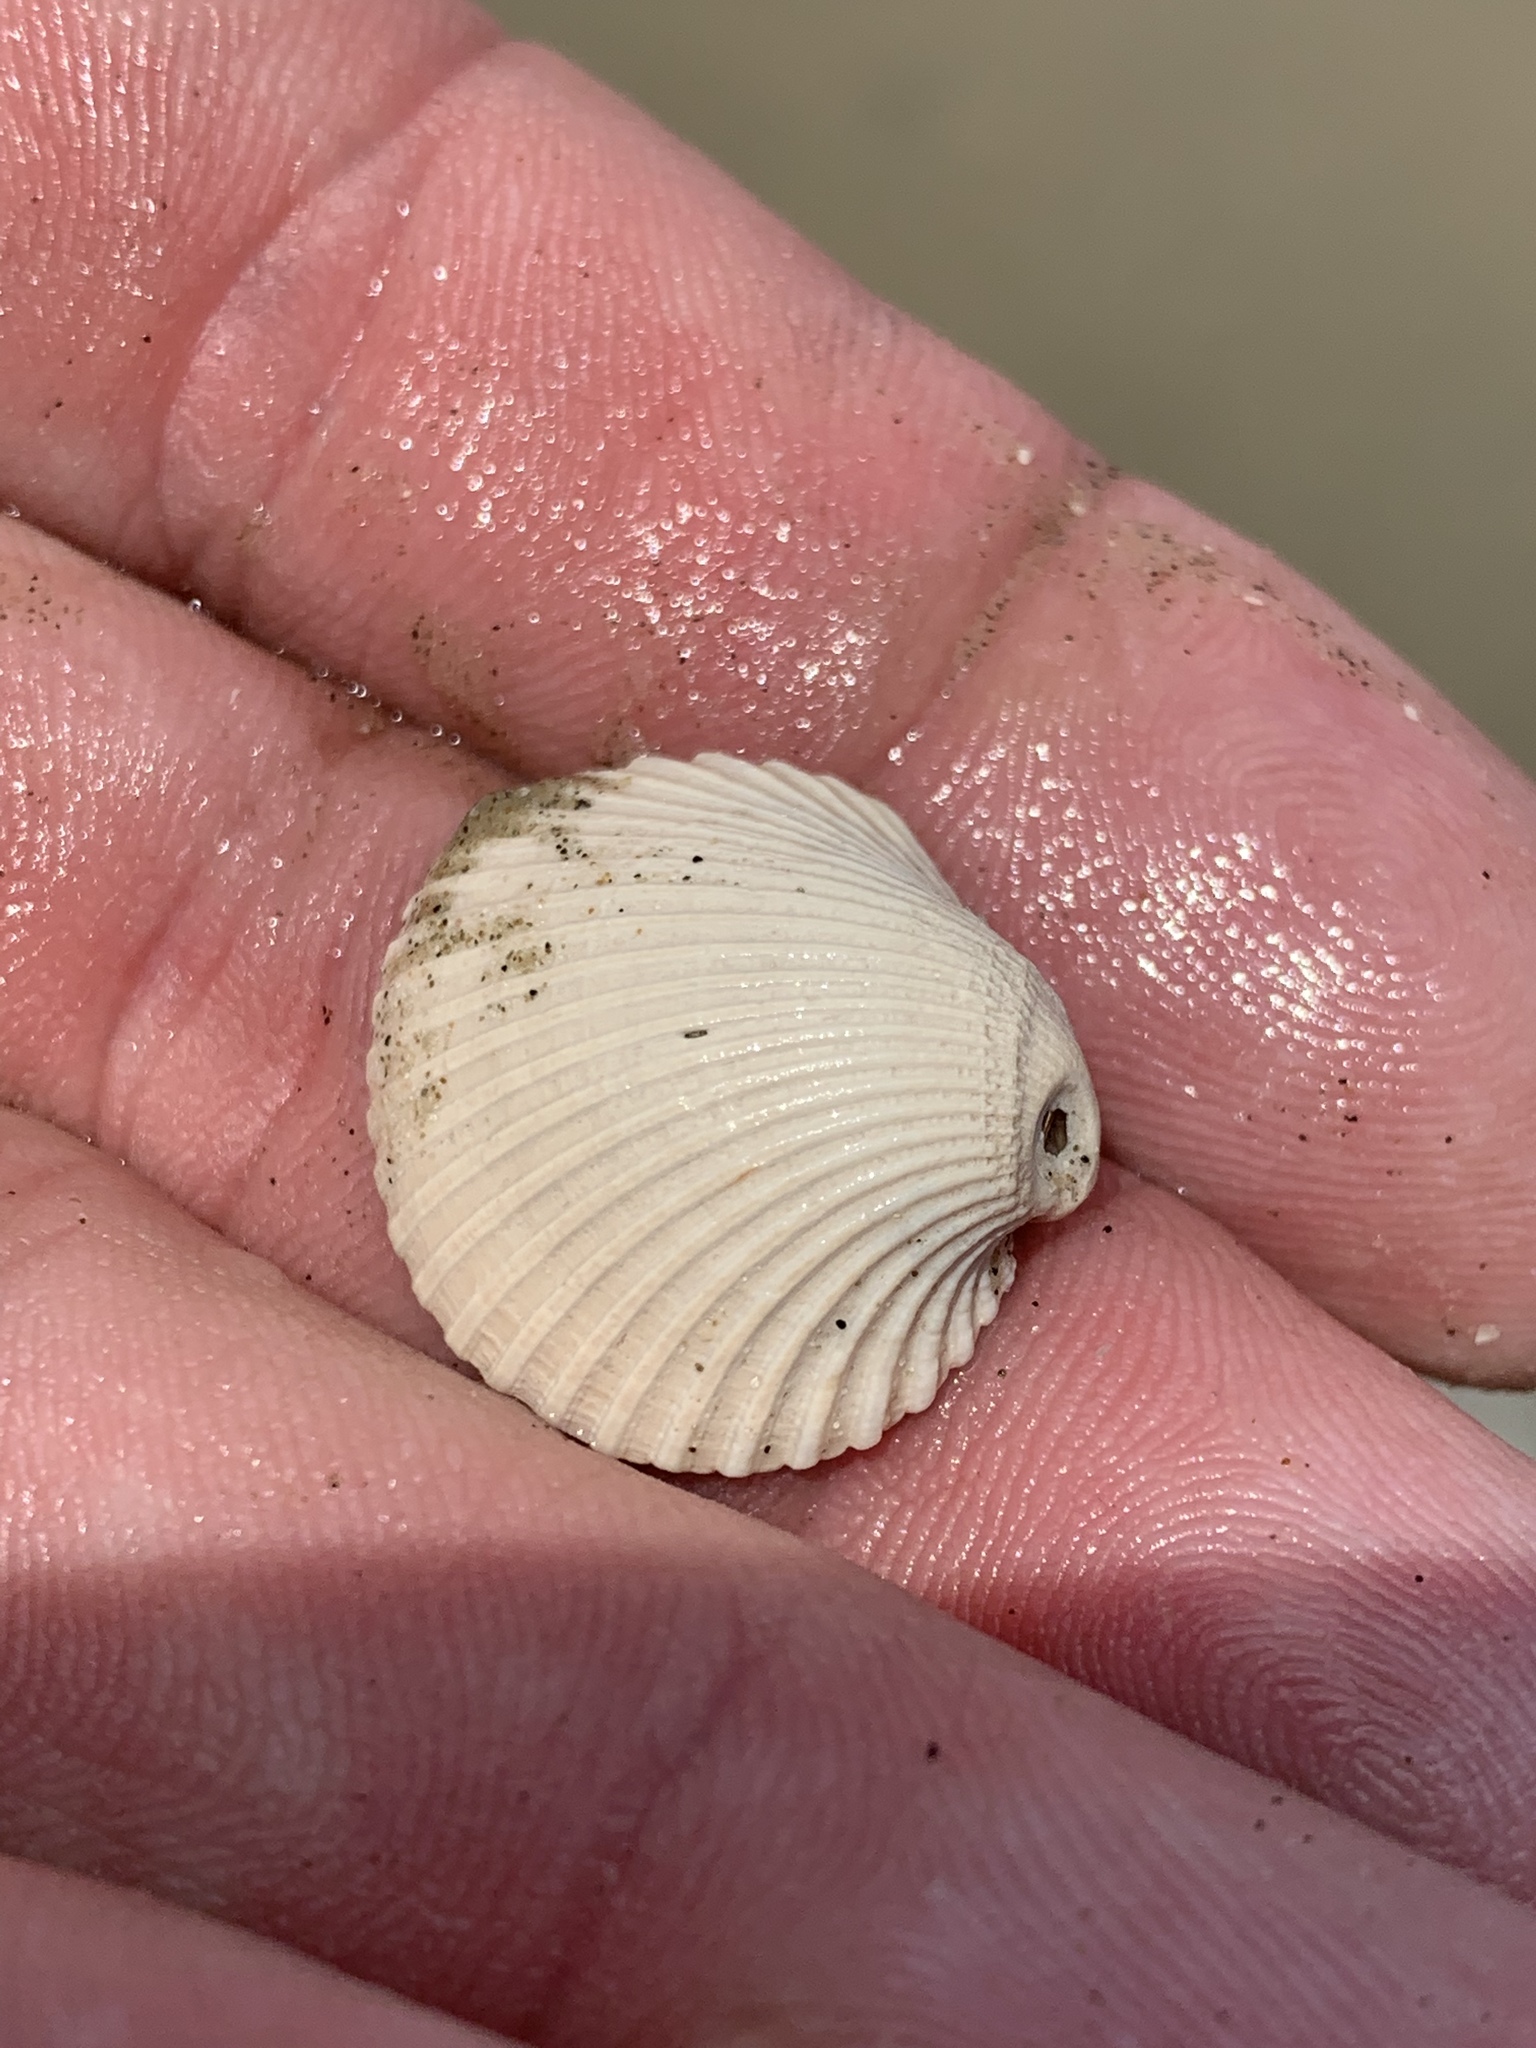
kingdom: Animalia
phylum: Mollusca
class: Bivalvia
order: Arcida
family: Arcidae
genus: Lunarca
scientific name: Lunarca ovalis
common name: Blood ark
